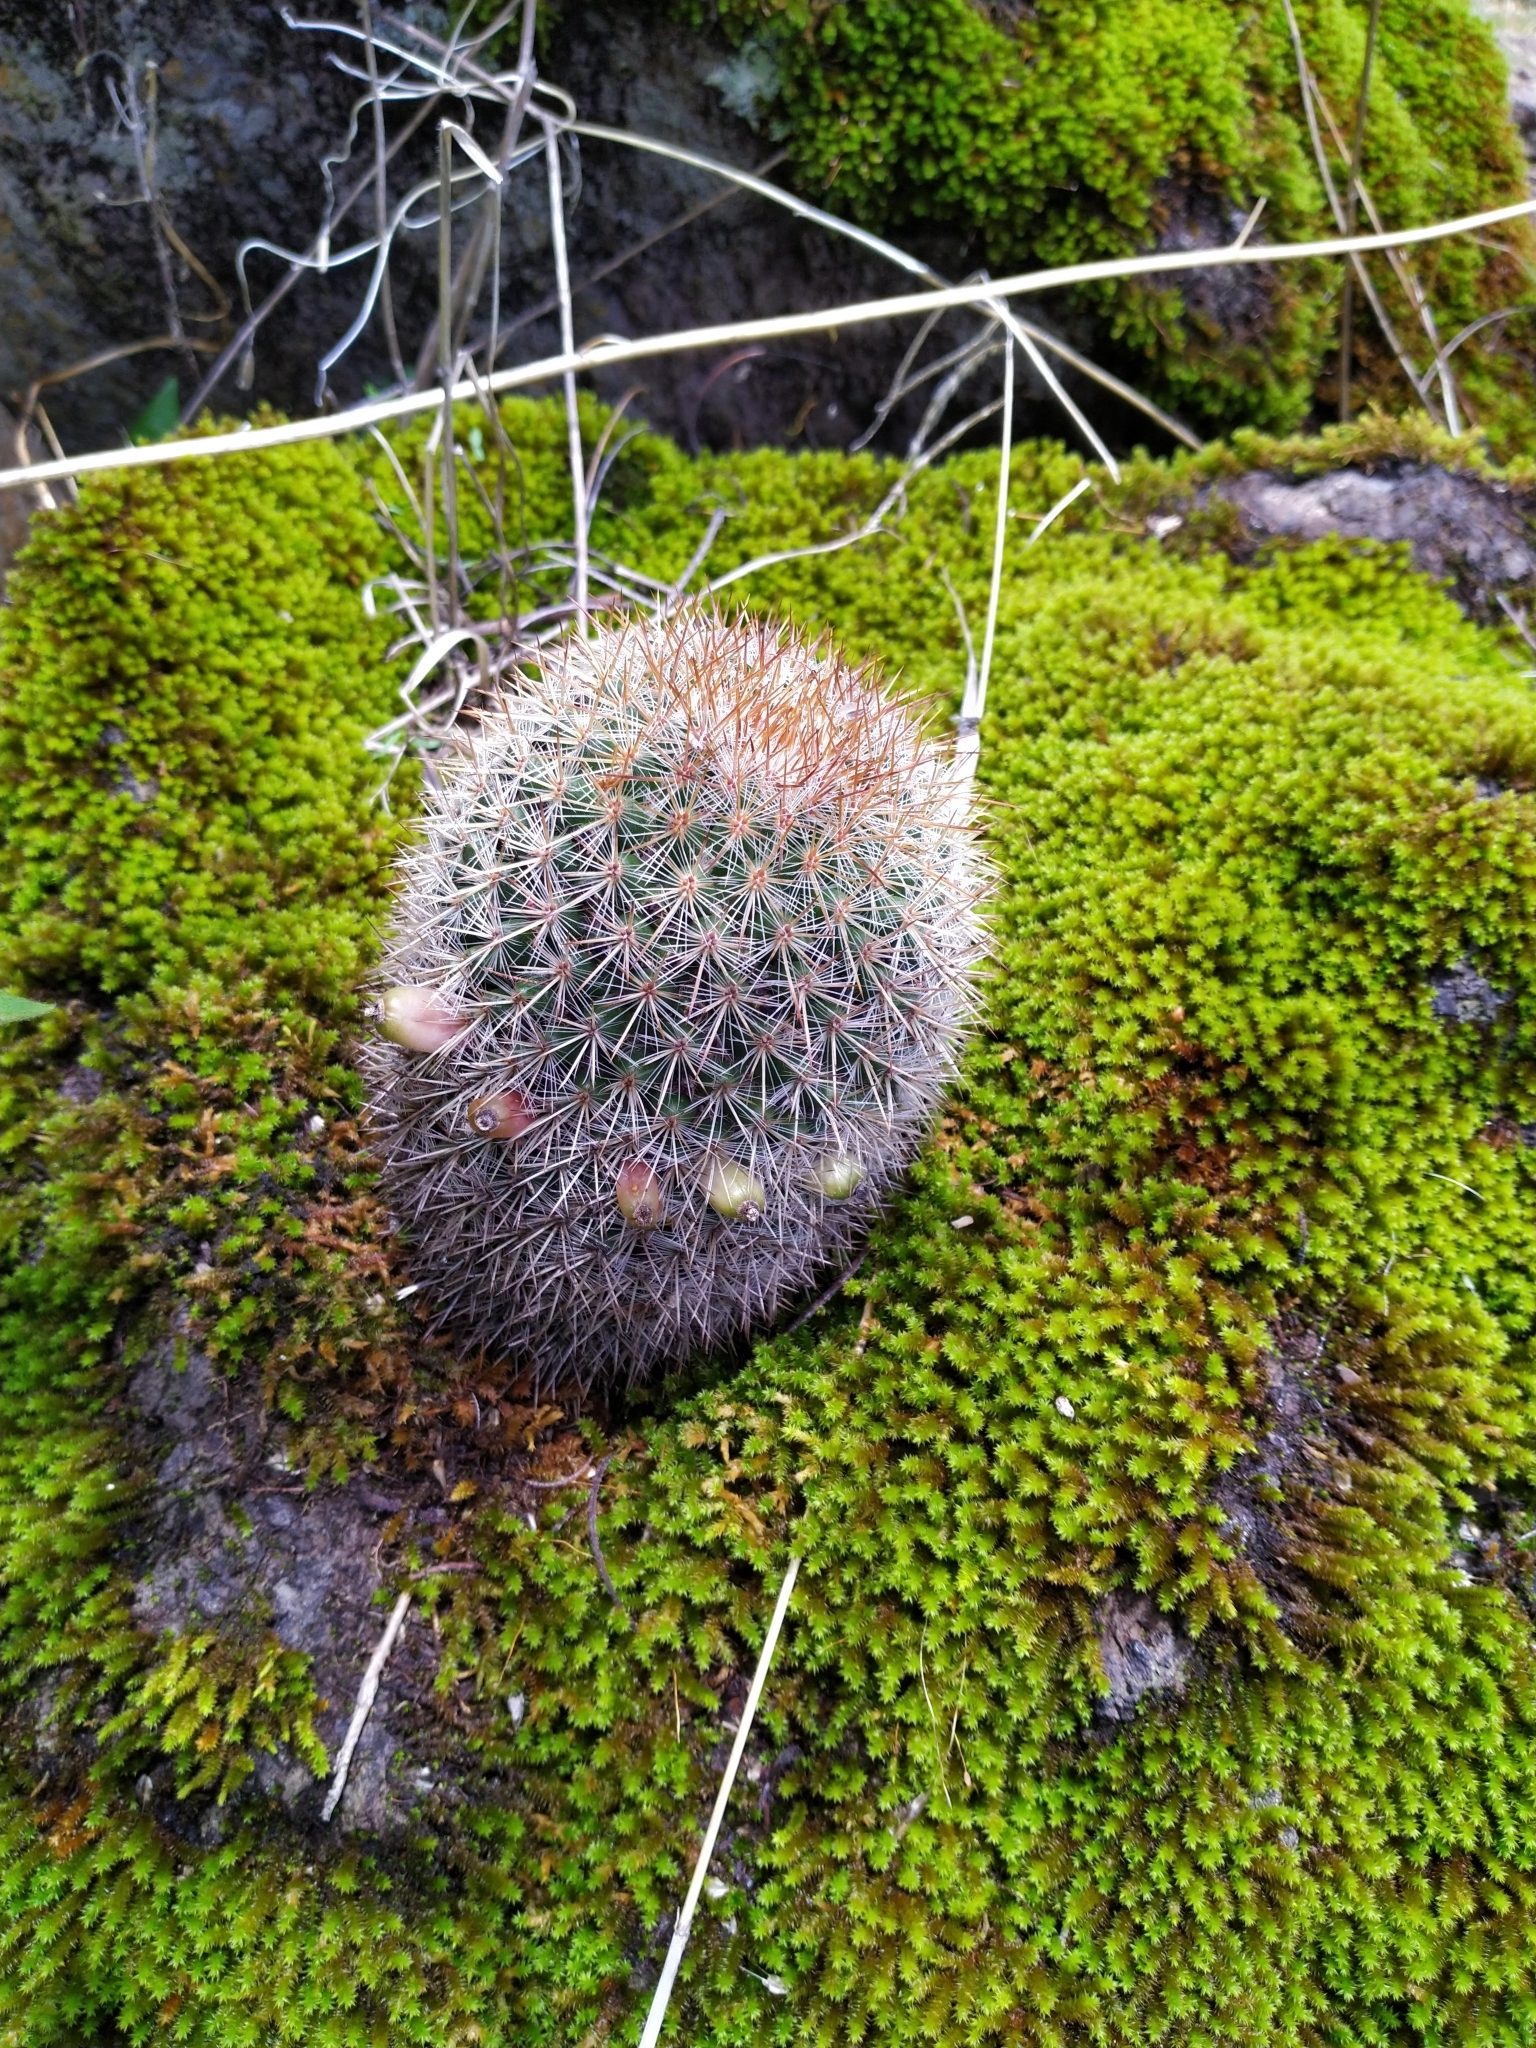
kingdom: Plantae
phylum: Tracheophyta
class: Magnoliopsida
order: Caryophyllales
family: Cactaceae
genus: Mammillaria
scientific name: Mammillaria nunezii
